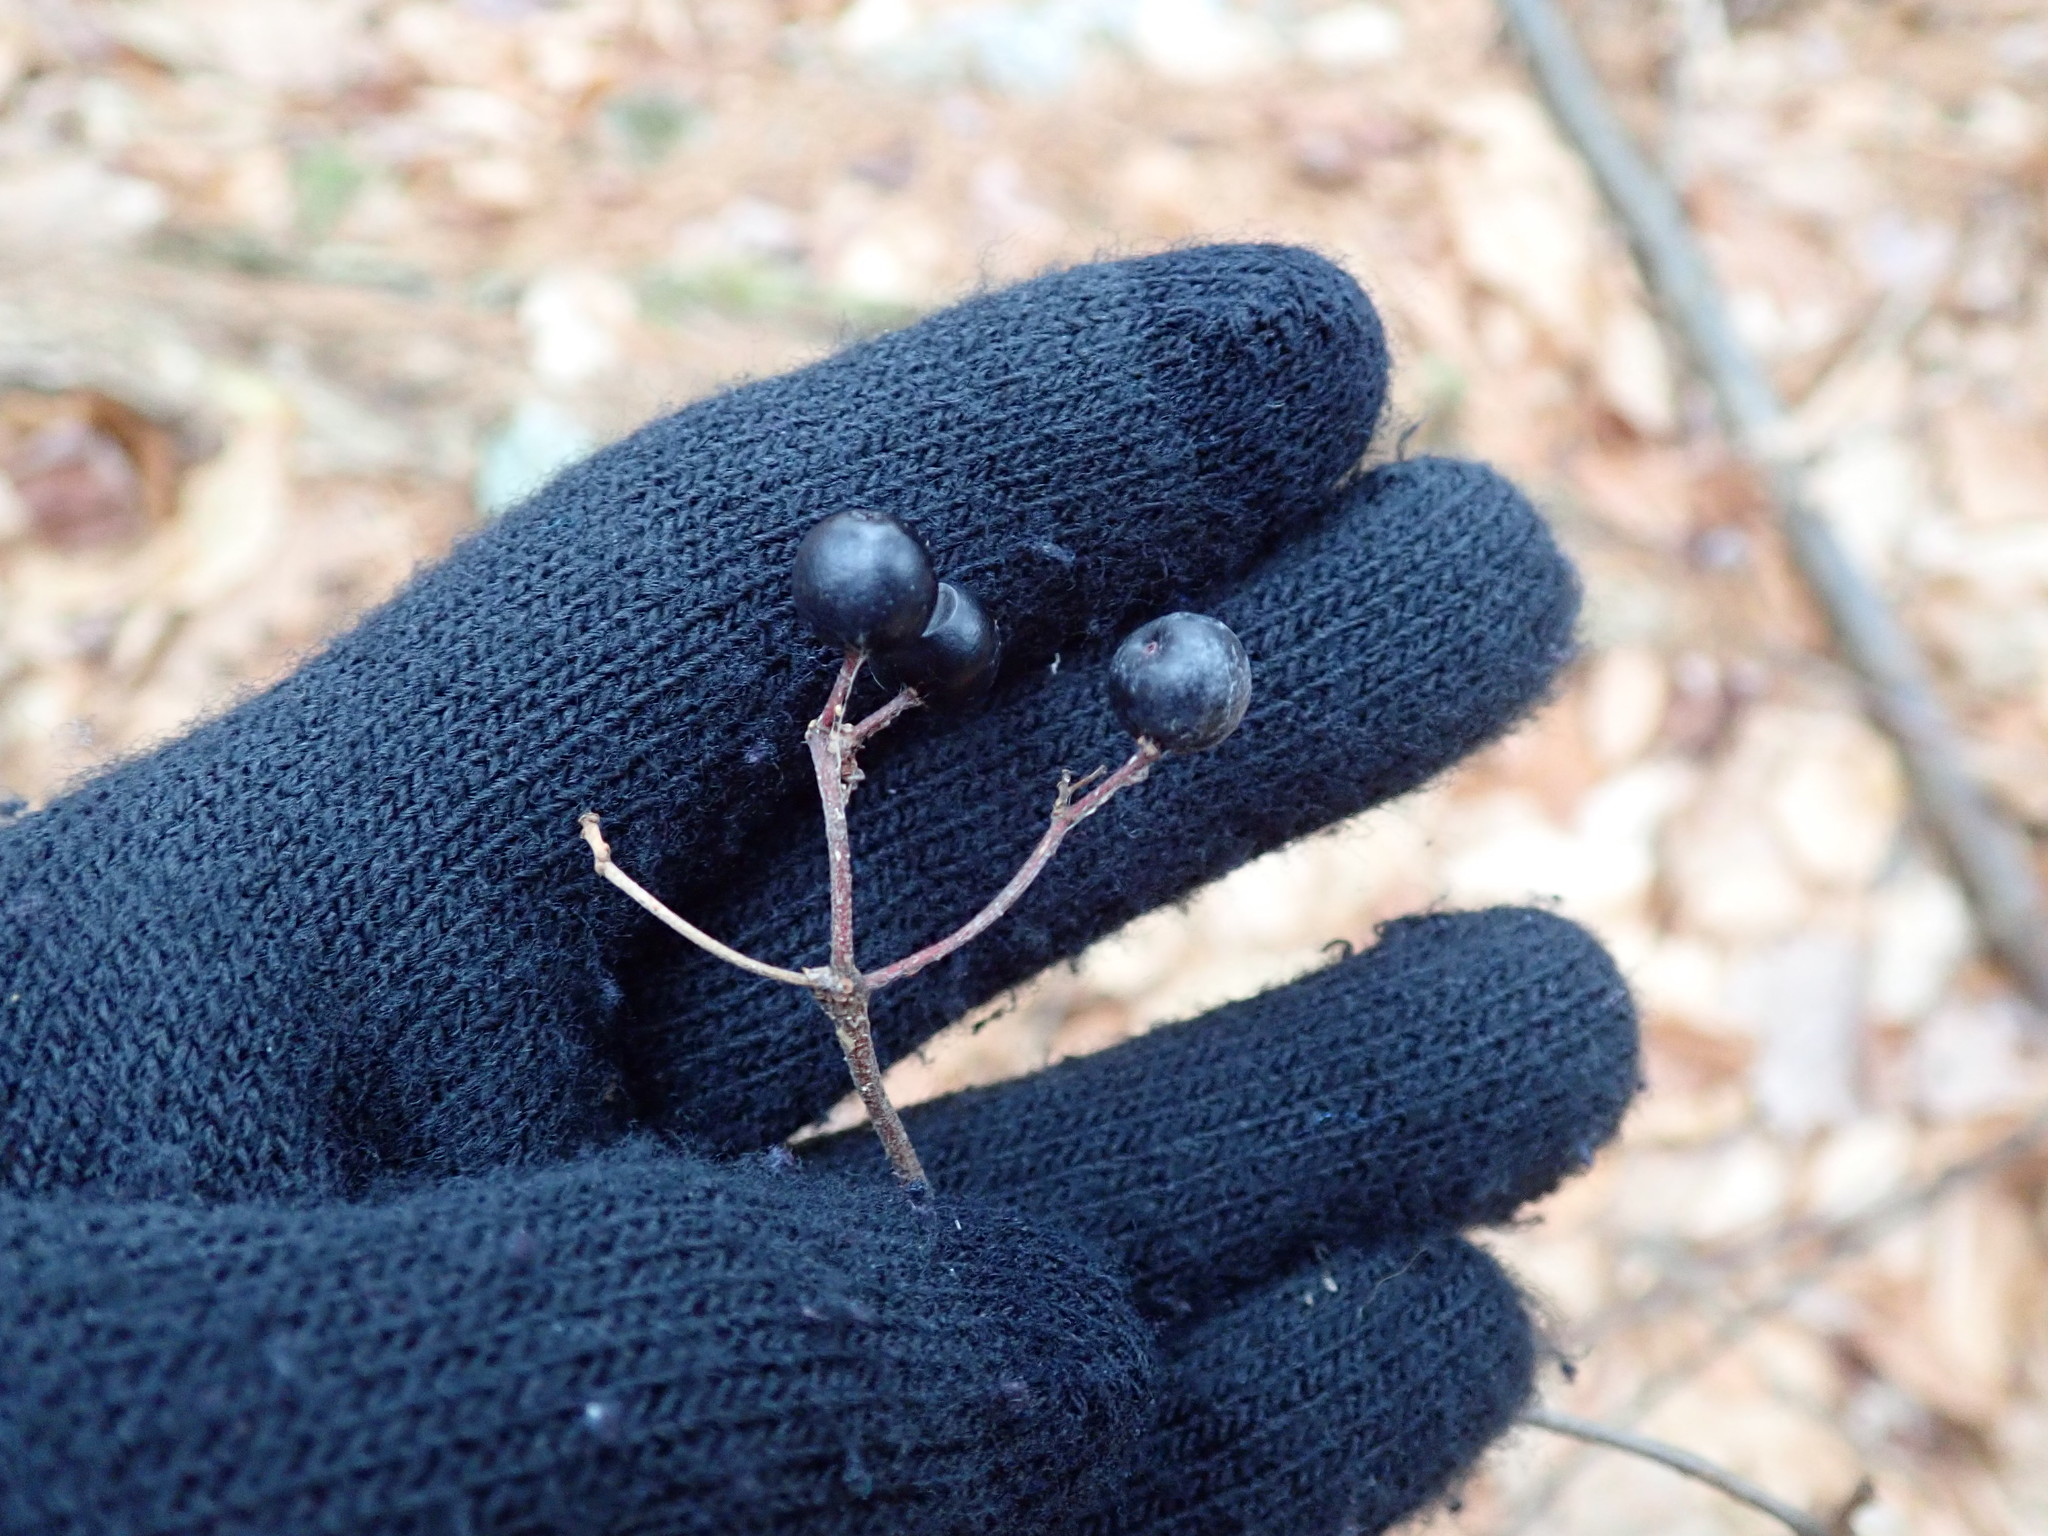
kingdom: Plantae
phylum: Tracheophyta
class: Magnoliopsida
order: Dipsacales
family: Viburnaceae
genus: Viburnum
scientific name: Viburnum acerifolium
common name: Dockmackie
